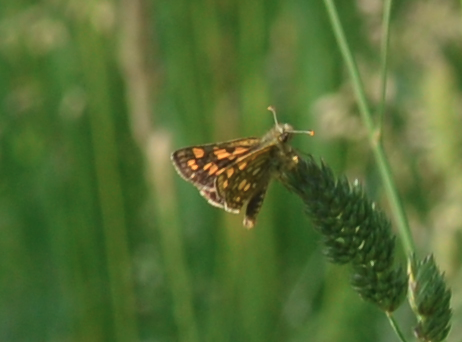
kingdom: Animalia
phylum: Arthropoda
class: Insecta
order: Lepidoptera
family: Hesperiidae
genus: Carterocephalus
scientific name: Carterocephalus palaemon
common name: Chequered skipper
